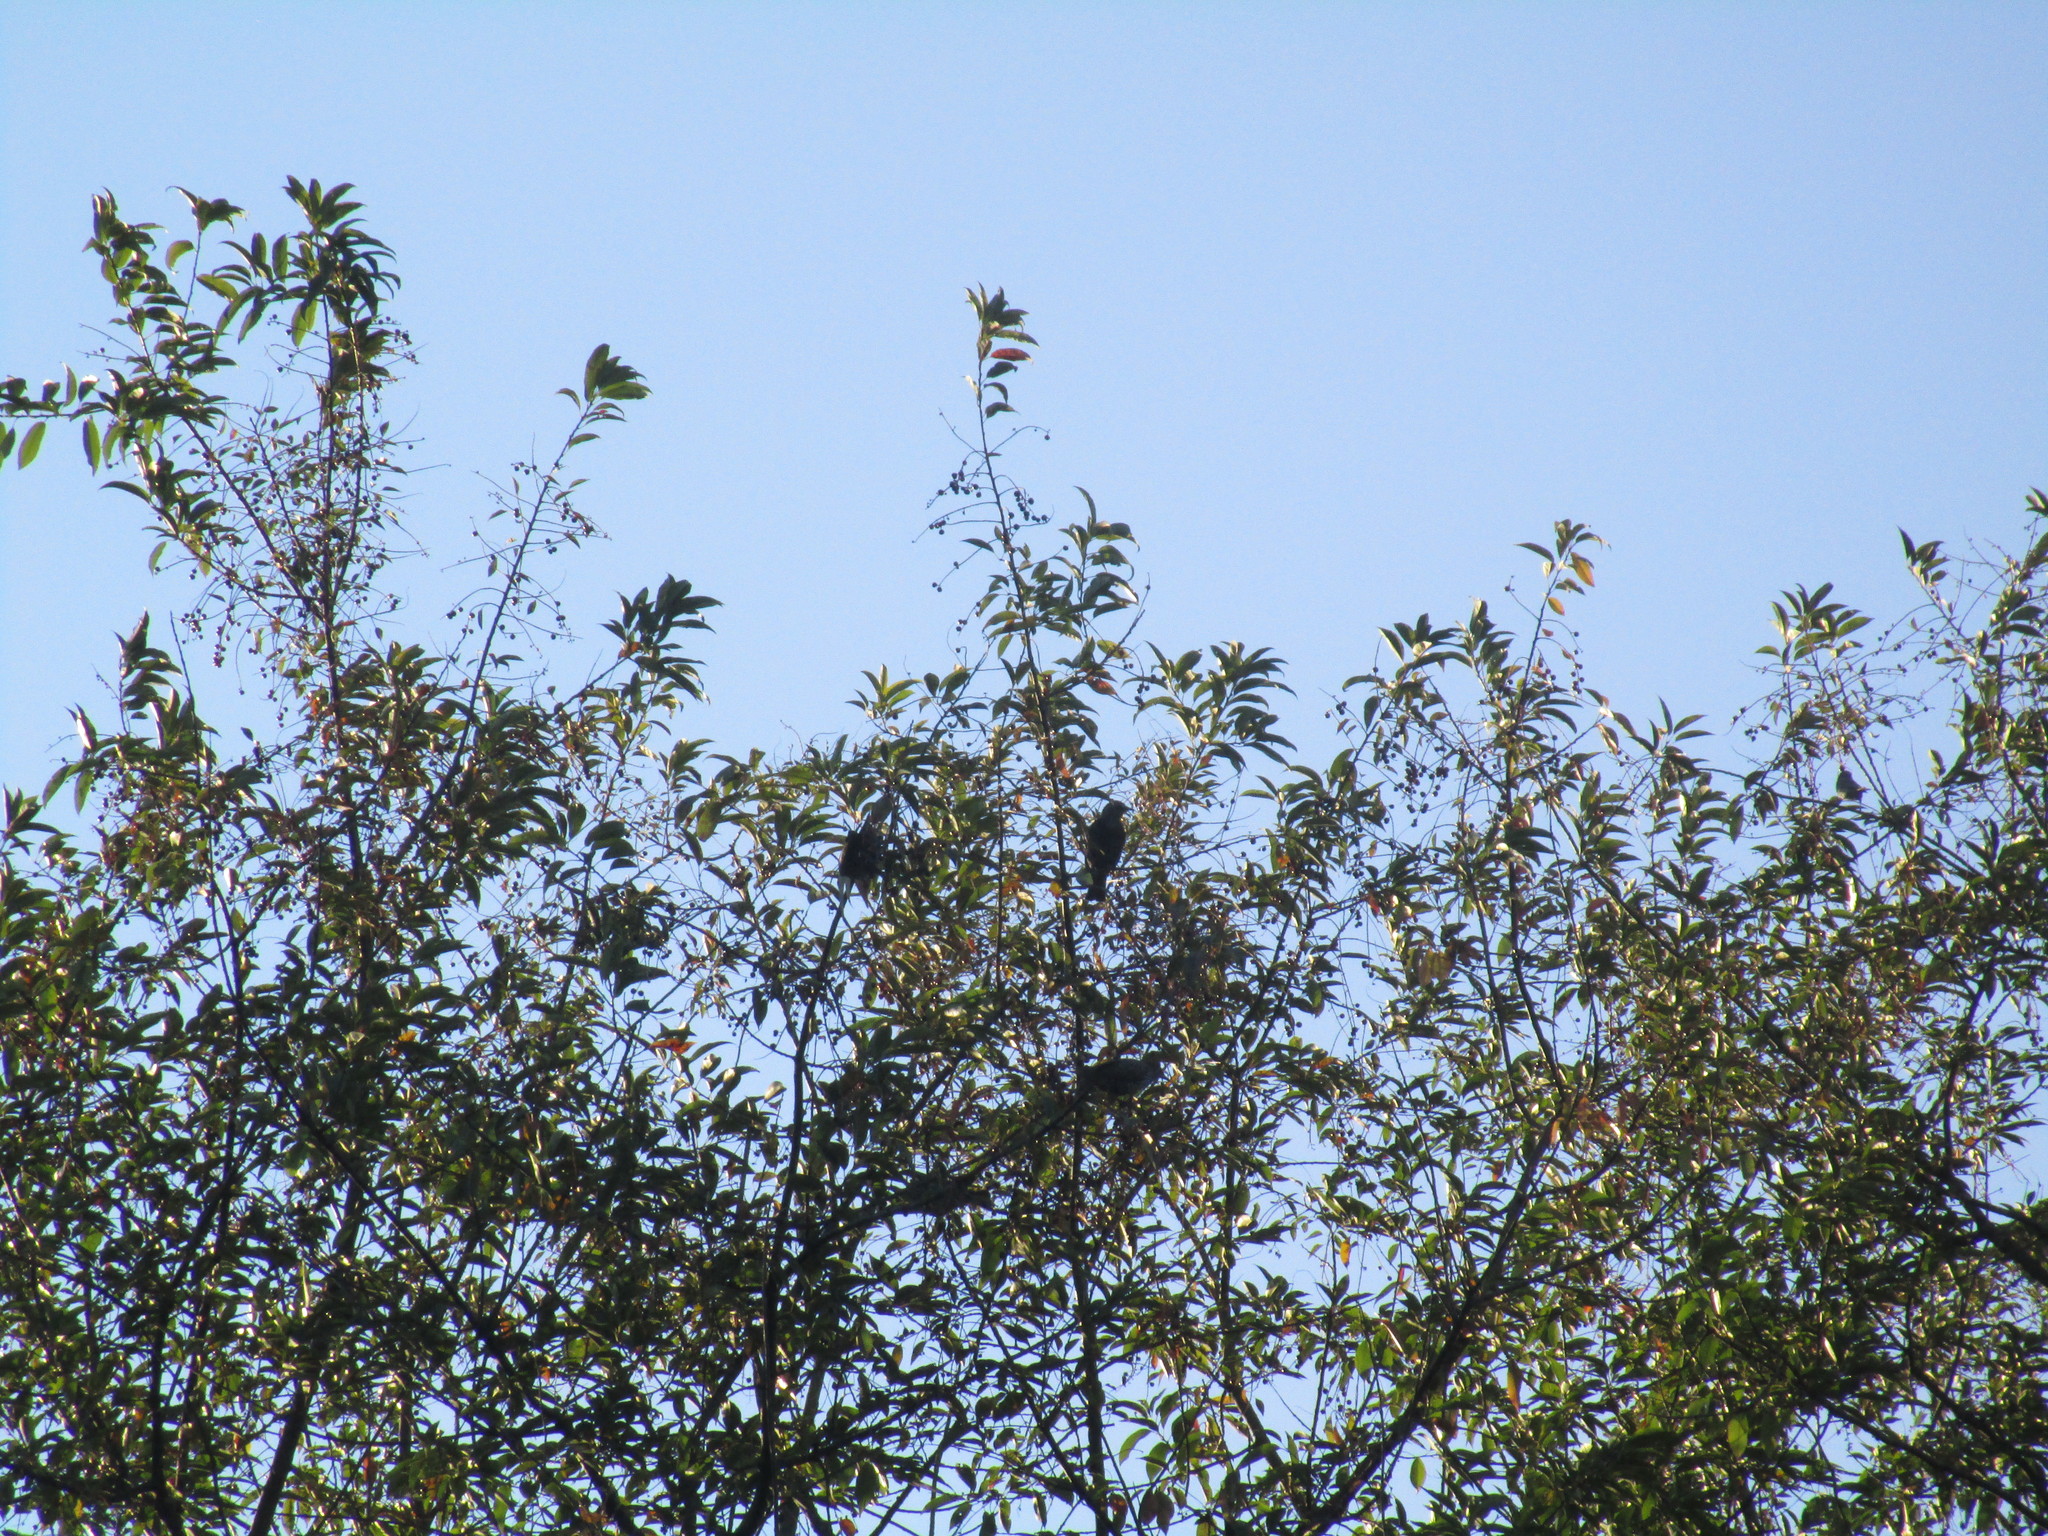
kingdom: Animalia
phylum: Chordata
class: Aves
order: Passeriformes
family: Passeridae
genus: Passer
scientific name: Passer domesticus
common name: House sparrow
